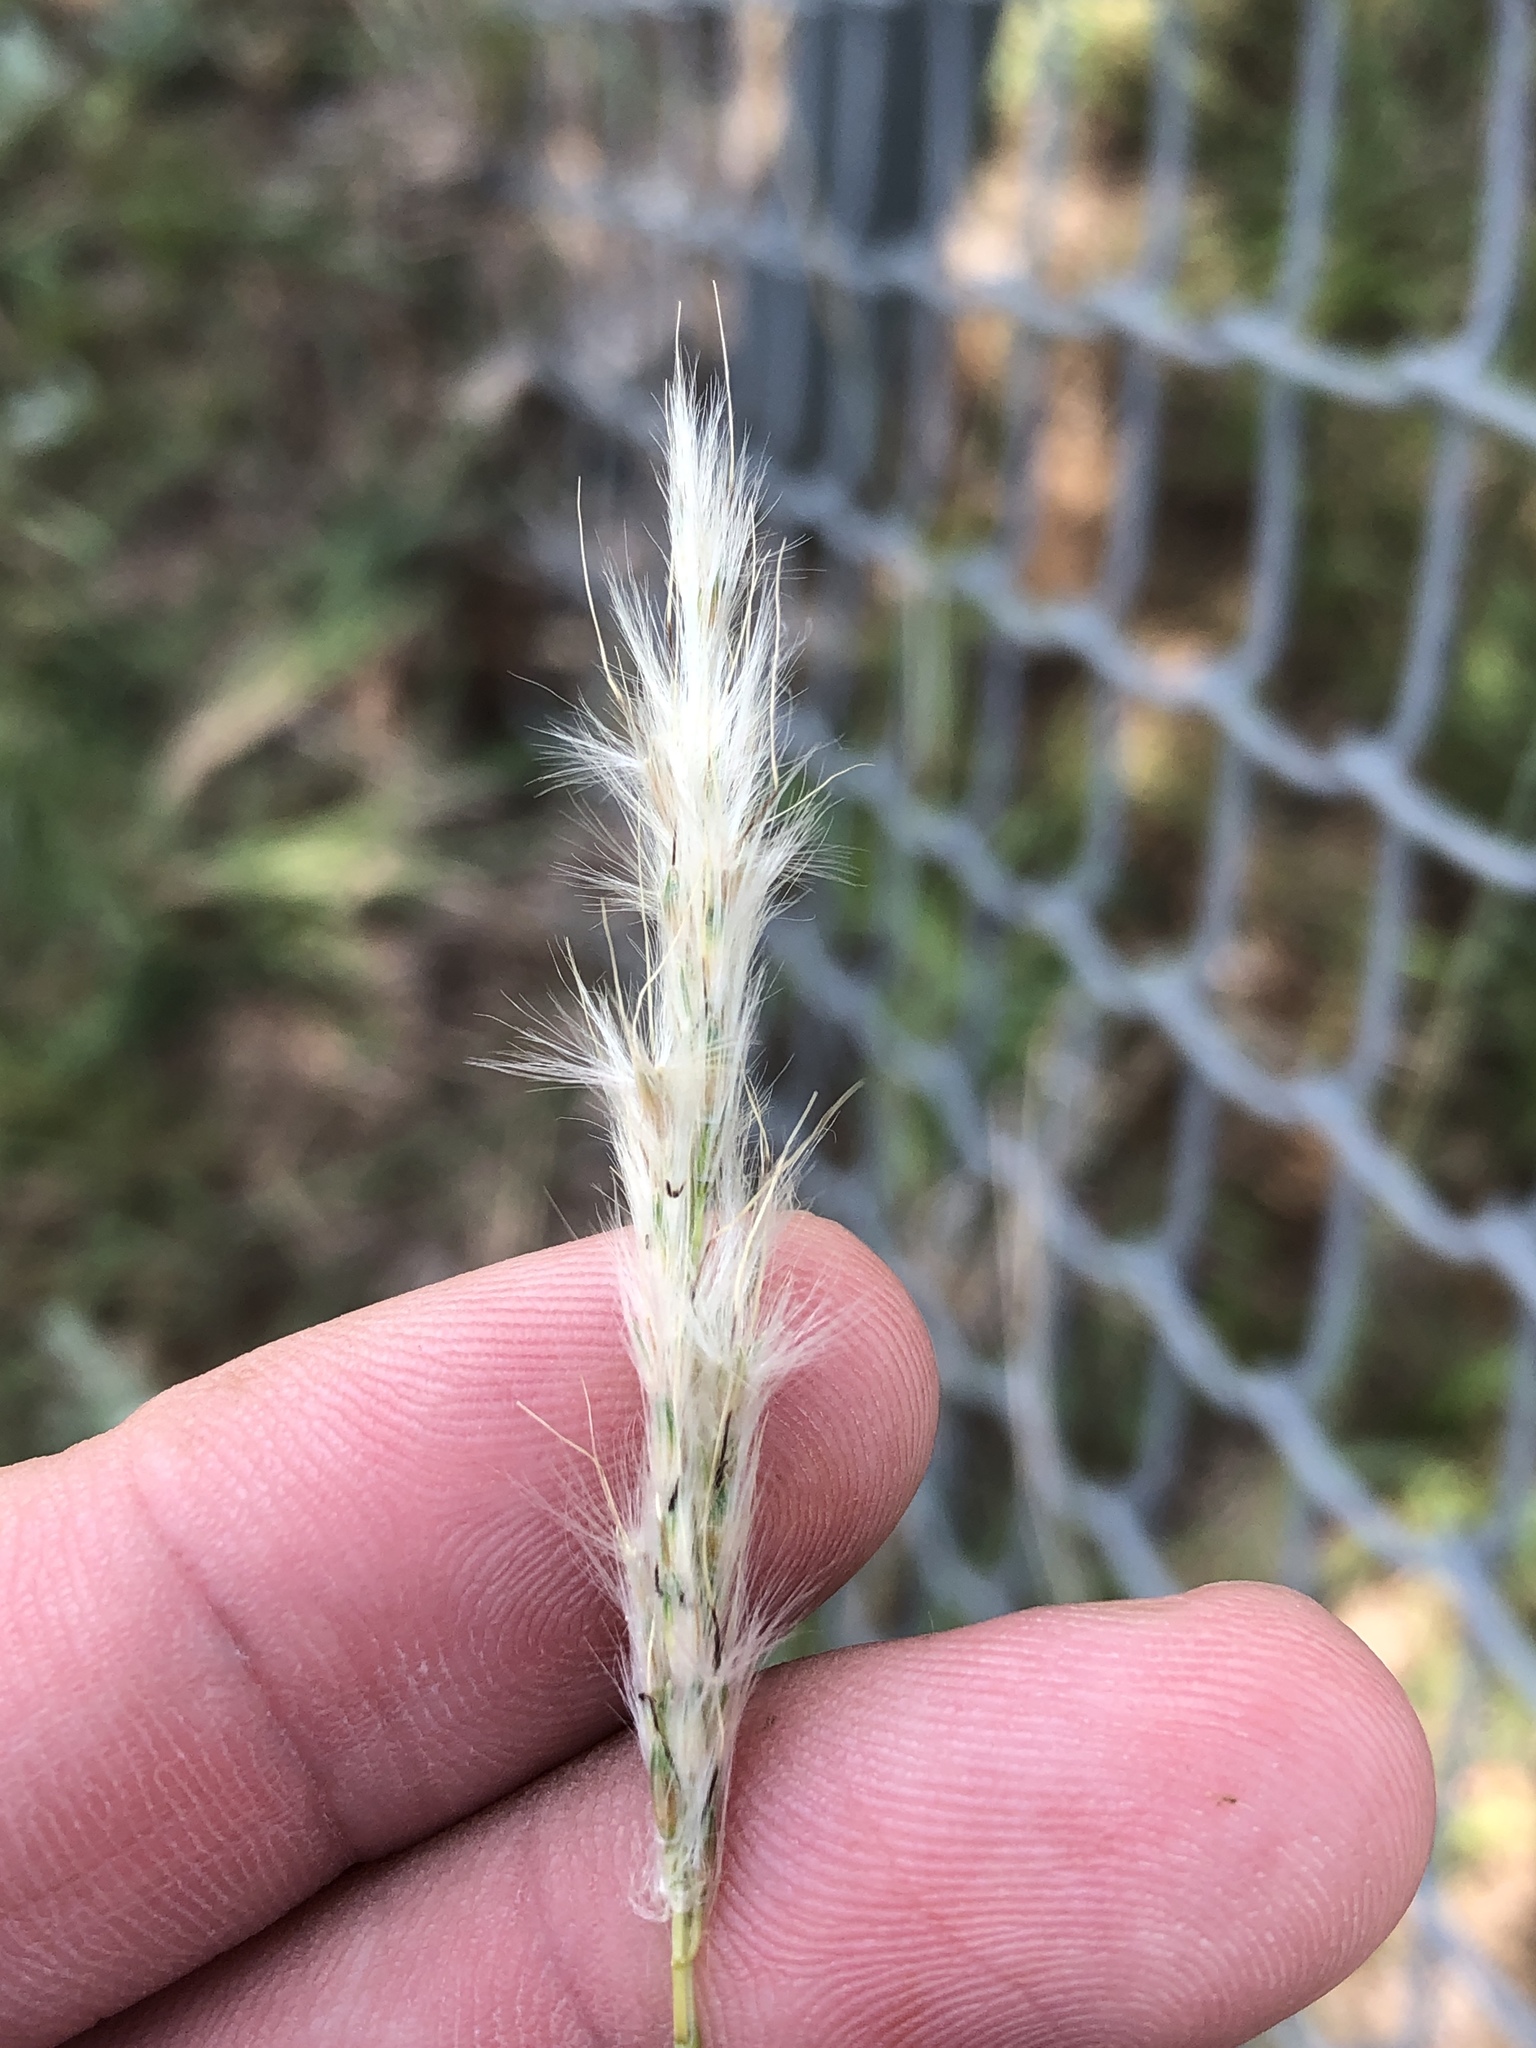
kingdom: Plantae
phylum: Tracheophyta
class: Liliopsida
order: Poales
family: Poaceae
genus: Bothriochloa
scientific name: Bothriochloa torreyana
